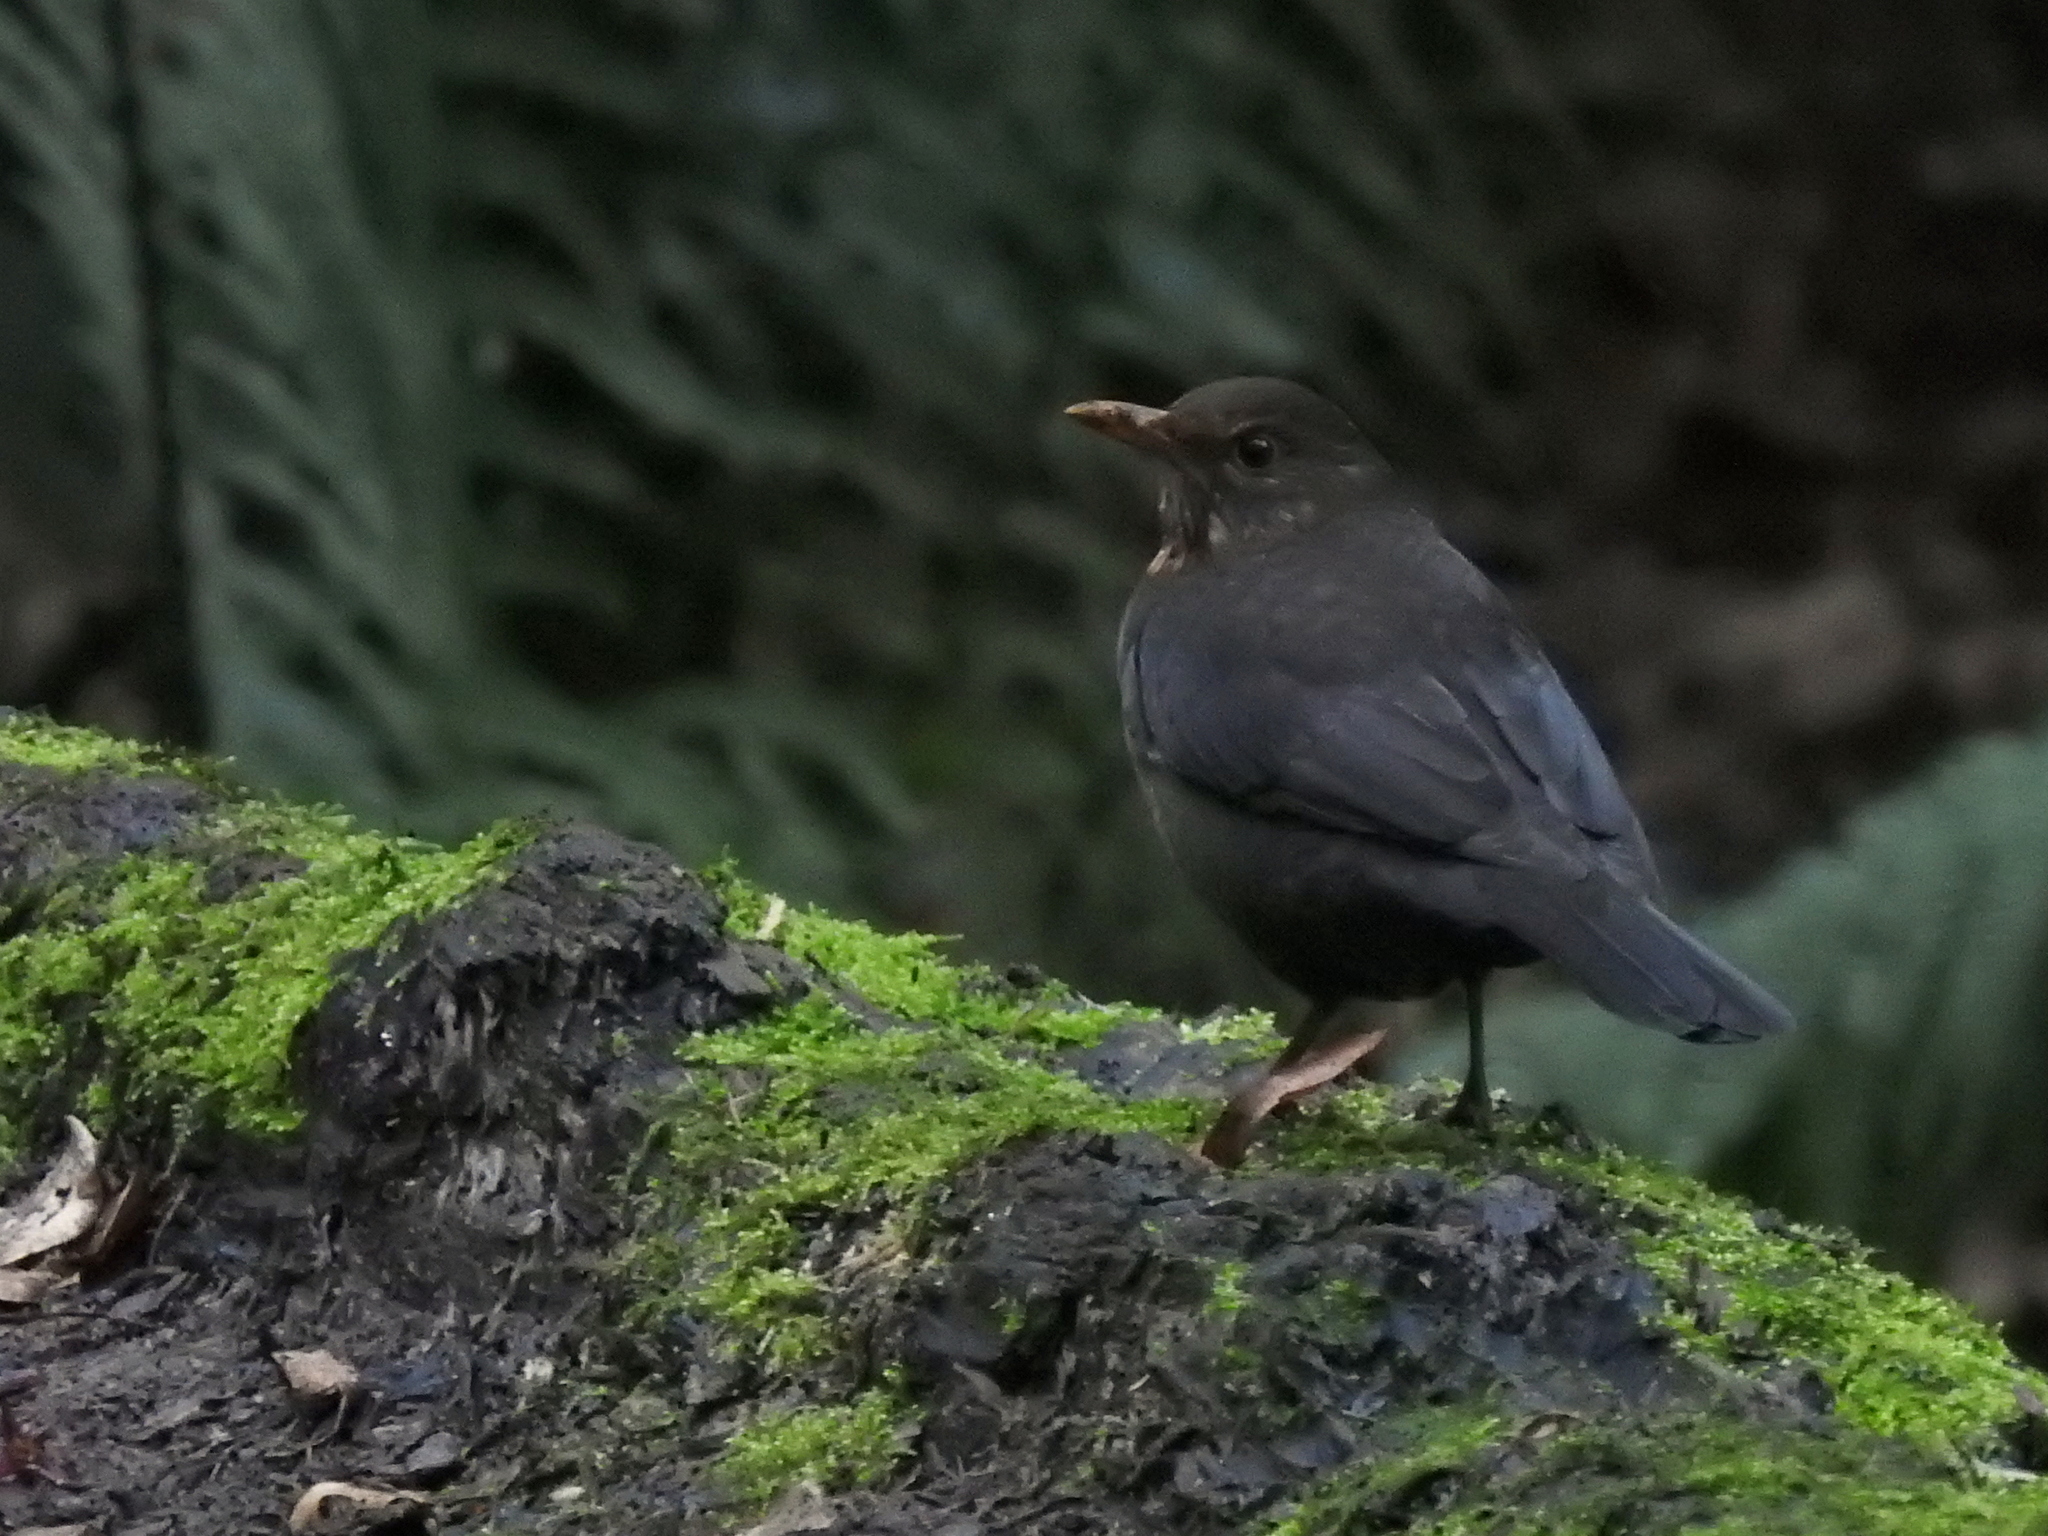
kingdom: Animalia
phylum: Chordata
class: Aves
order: Passeriformes
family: Turdidae
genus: Turdus
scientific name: Turdus merula
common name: Common blackbird
